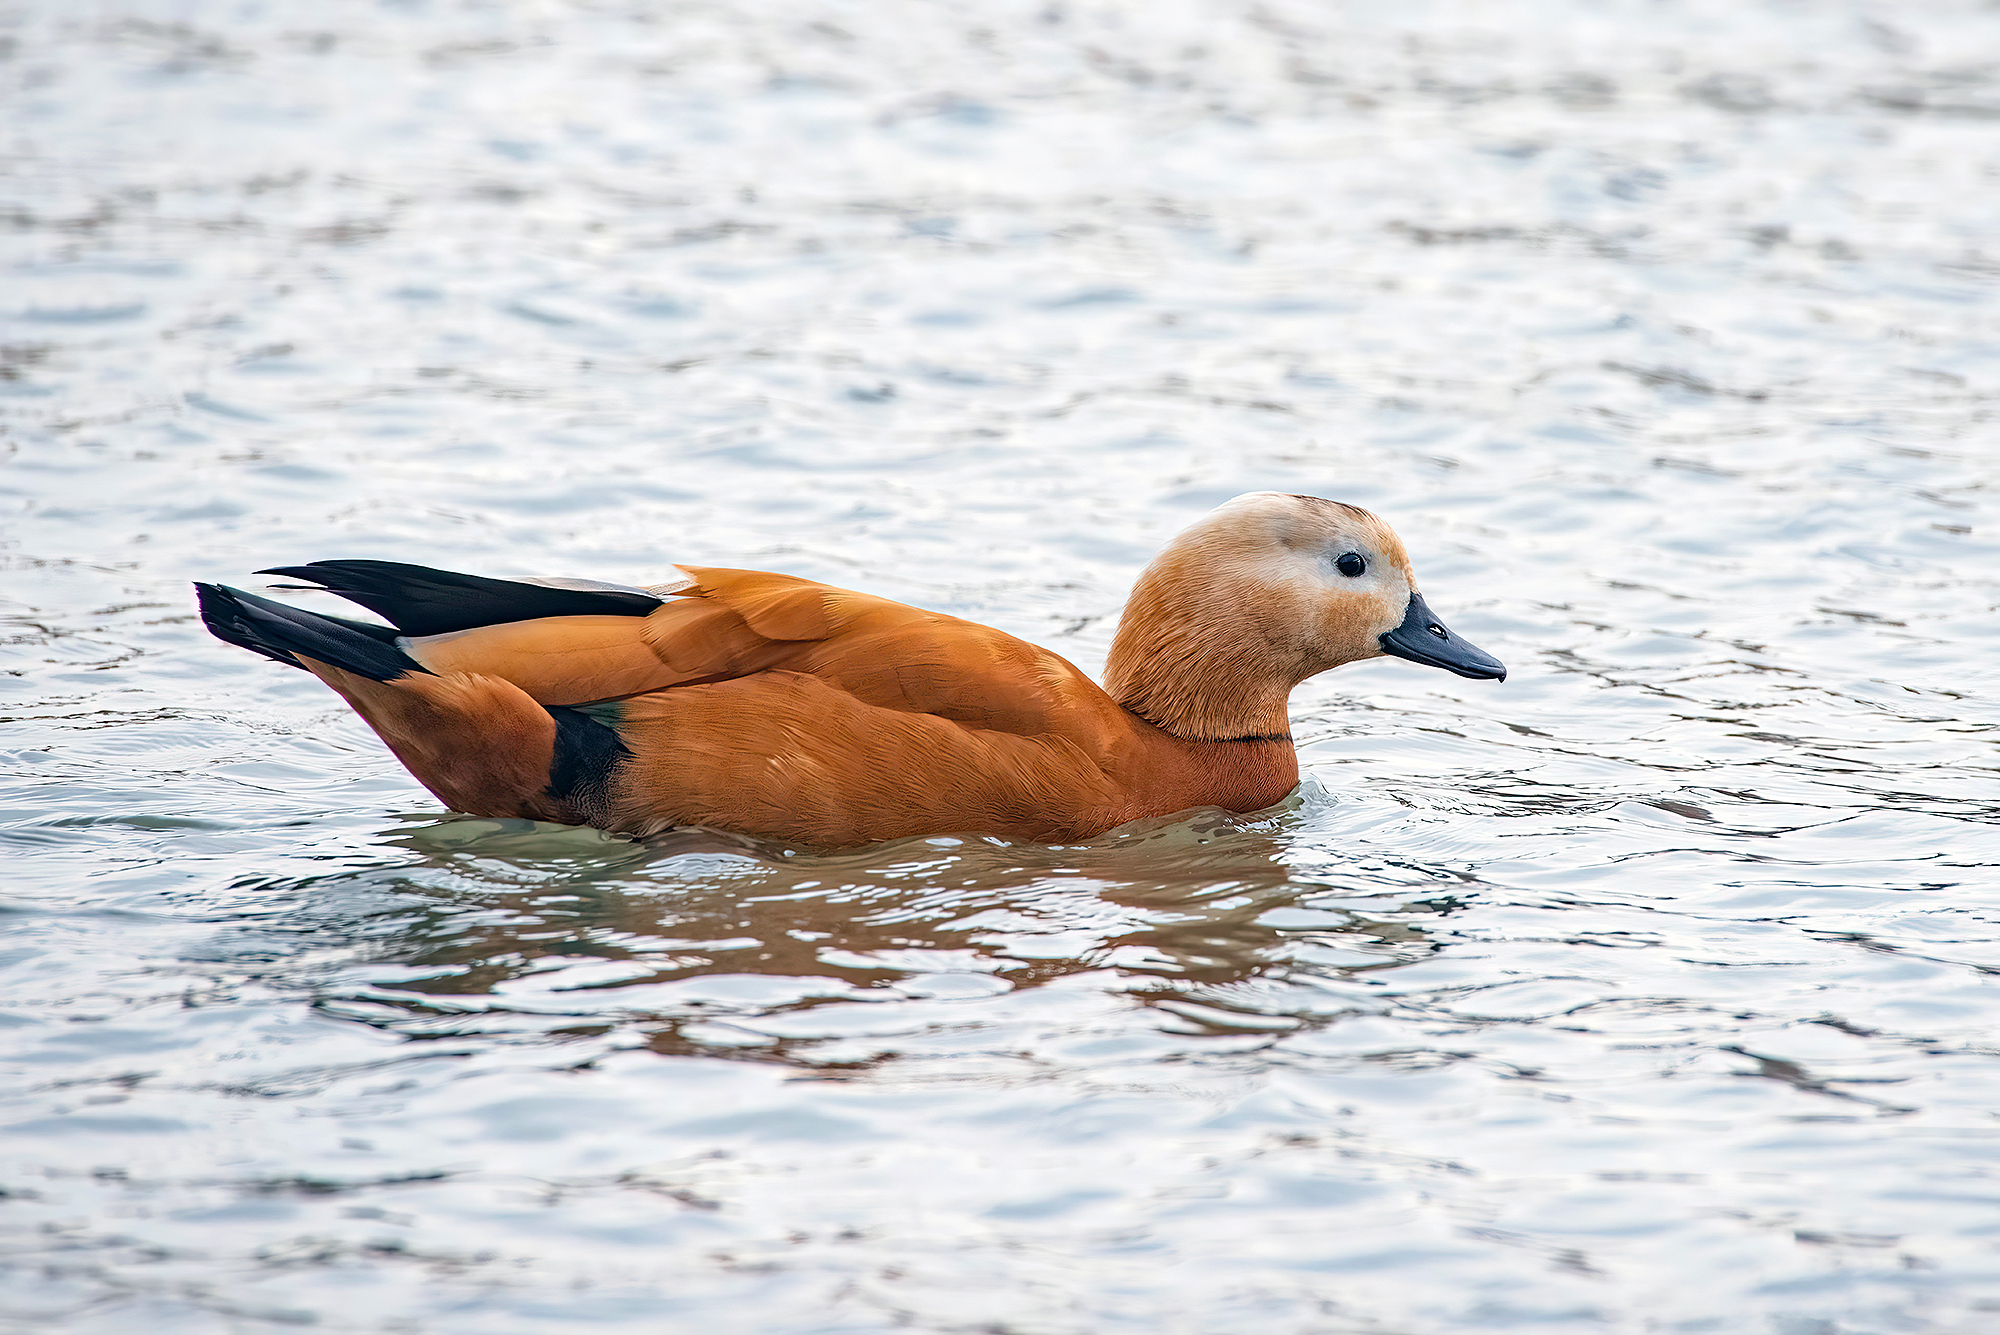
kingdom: Animalia
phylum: Chordata
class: Aves
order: Anseriformes
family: Anatidae
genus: Tadorna
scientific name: Tadorna ferruginea
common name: Ruddy shelduck
